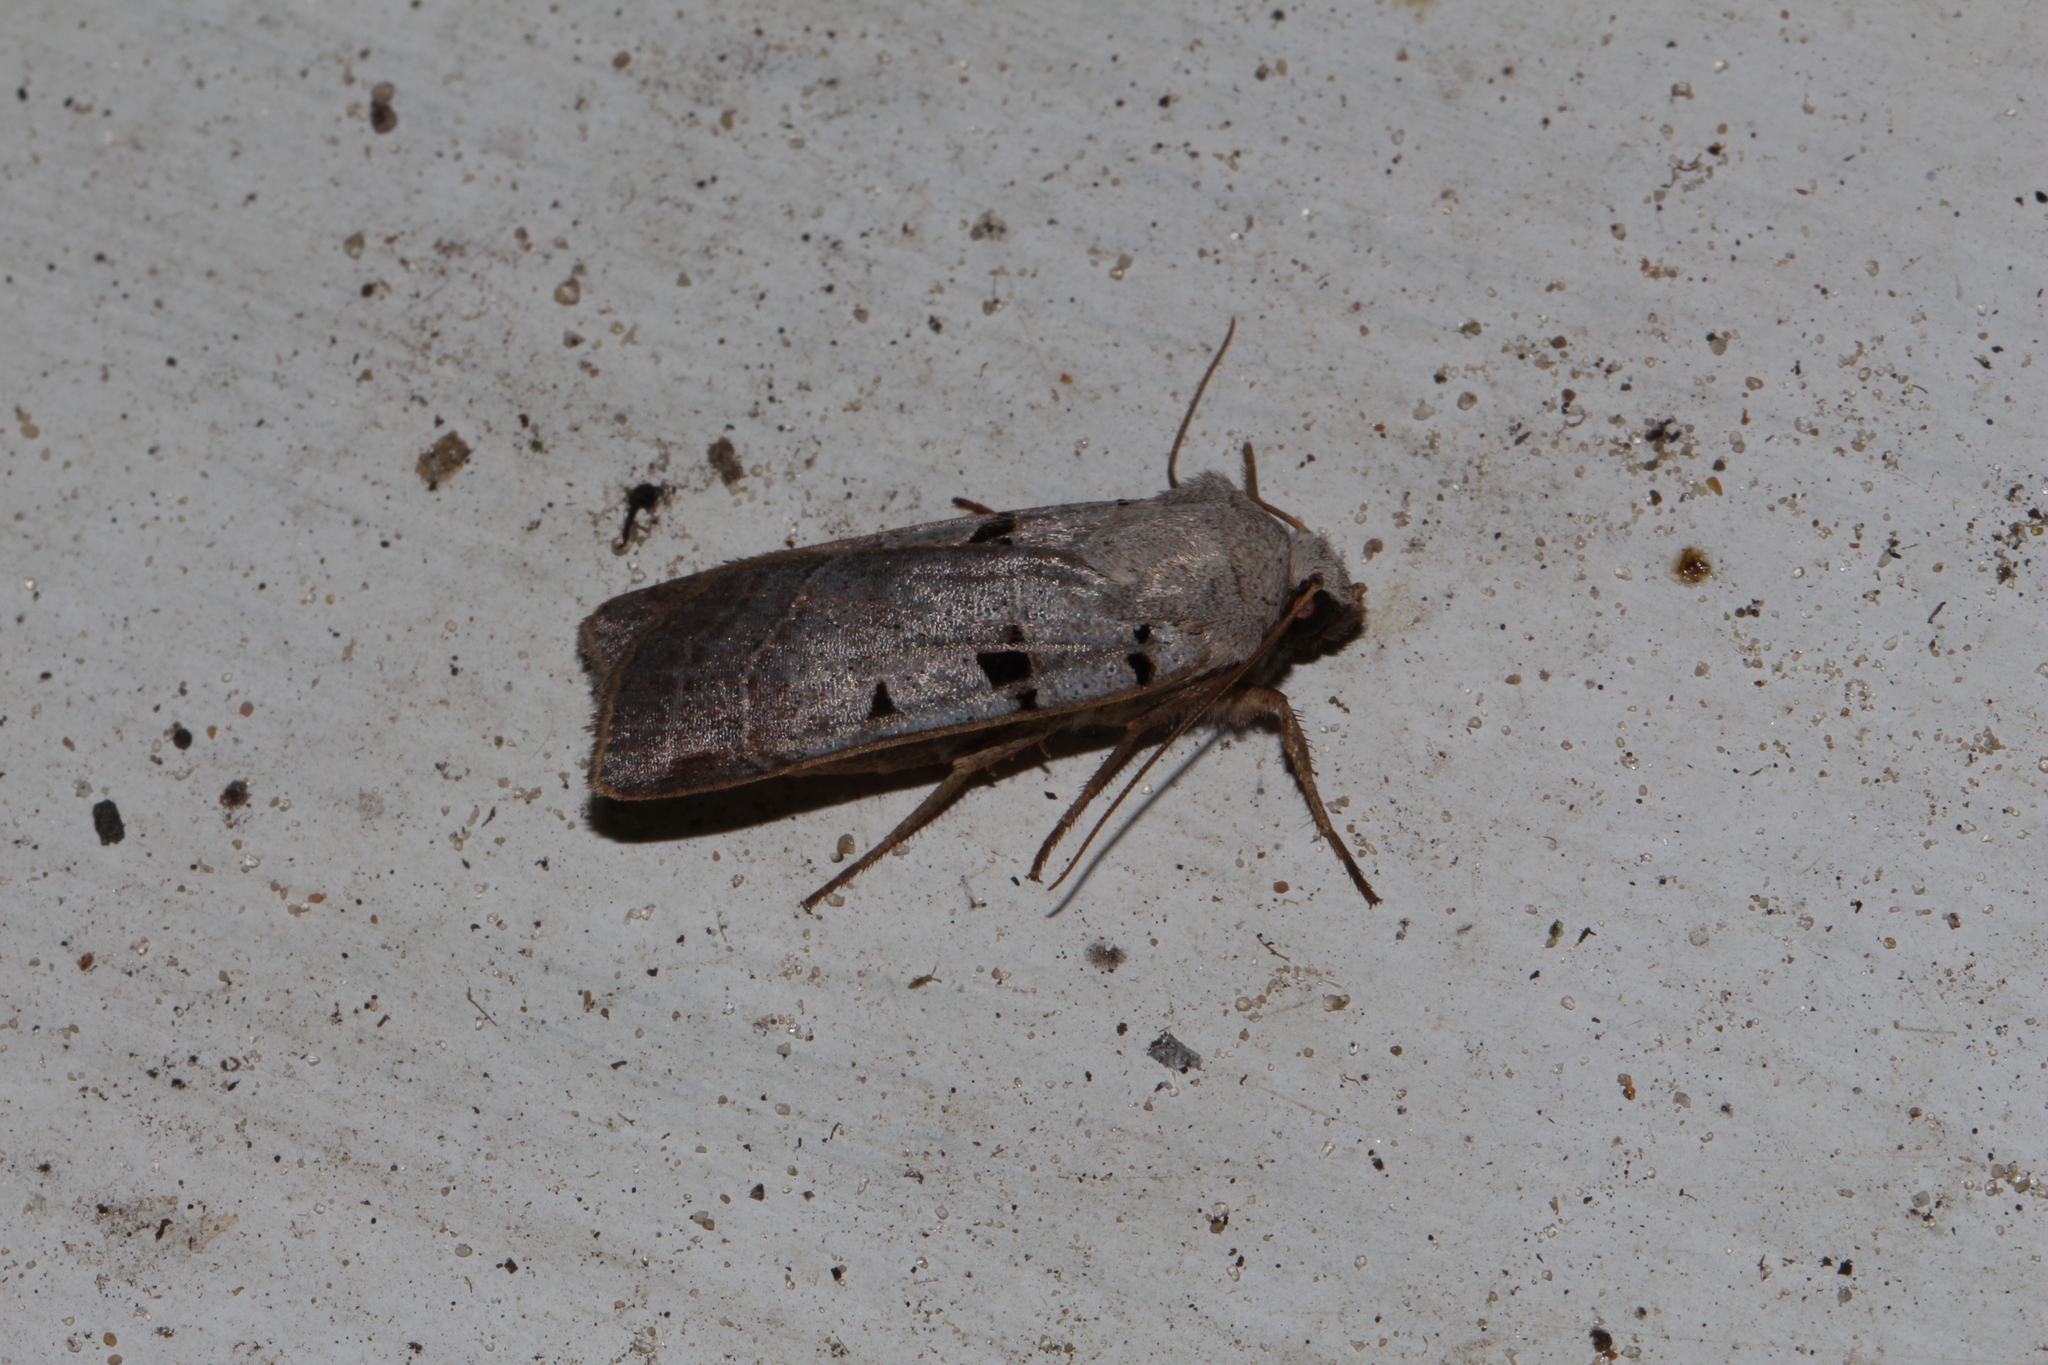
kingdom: Animalia
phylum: Arthropoda
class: Insecta
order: Lepidoptera
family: Noctuidae
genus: Eugnorisma
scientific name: Eugnorisma glareosa
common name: Autumnal rustic
